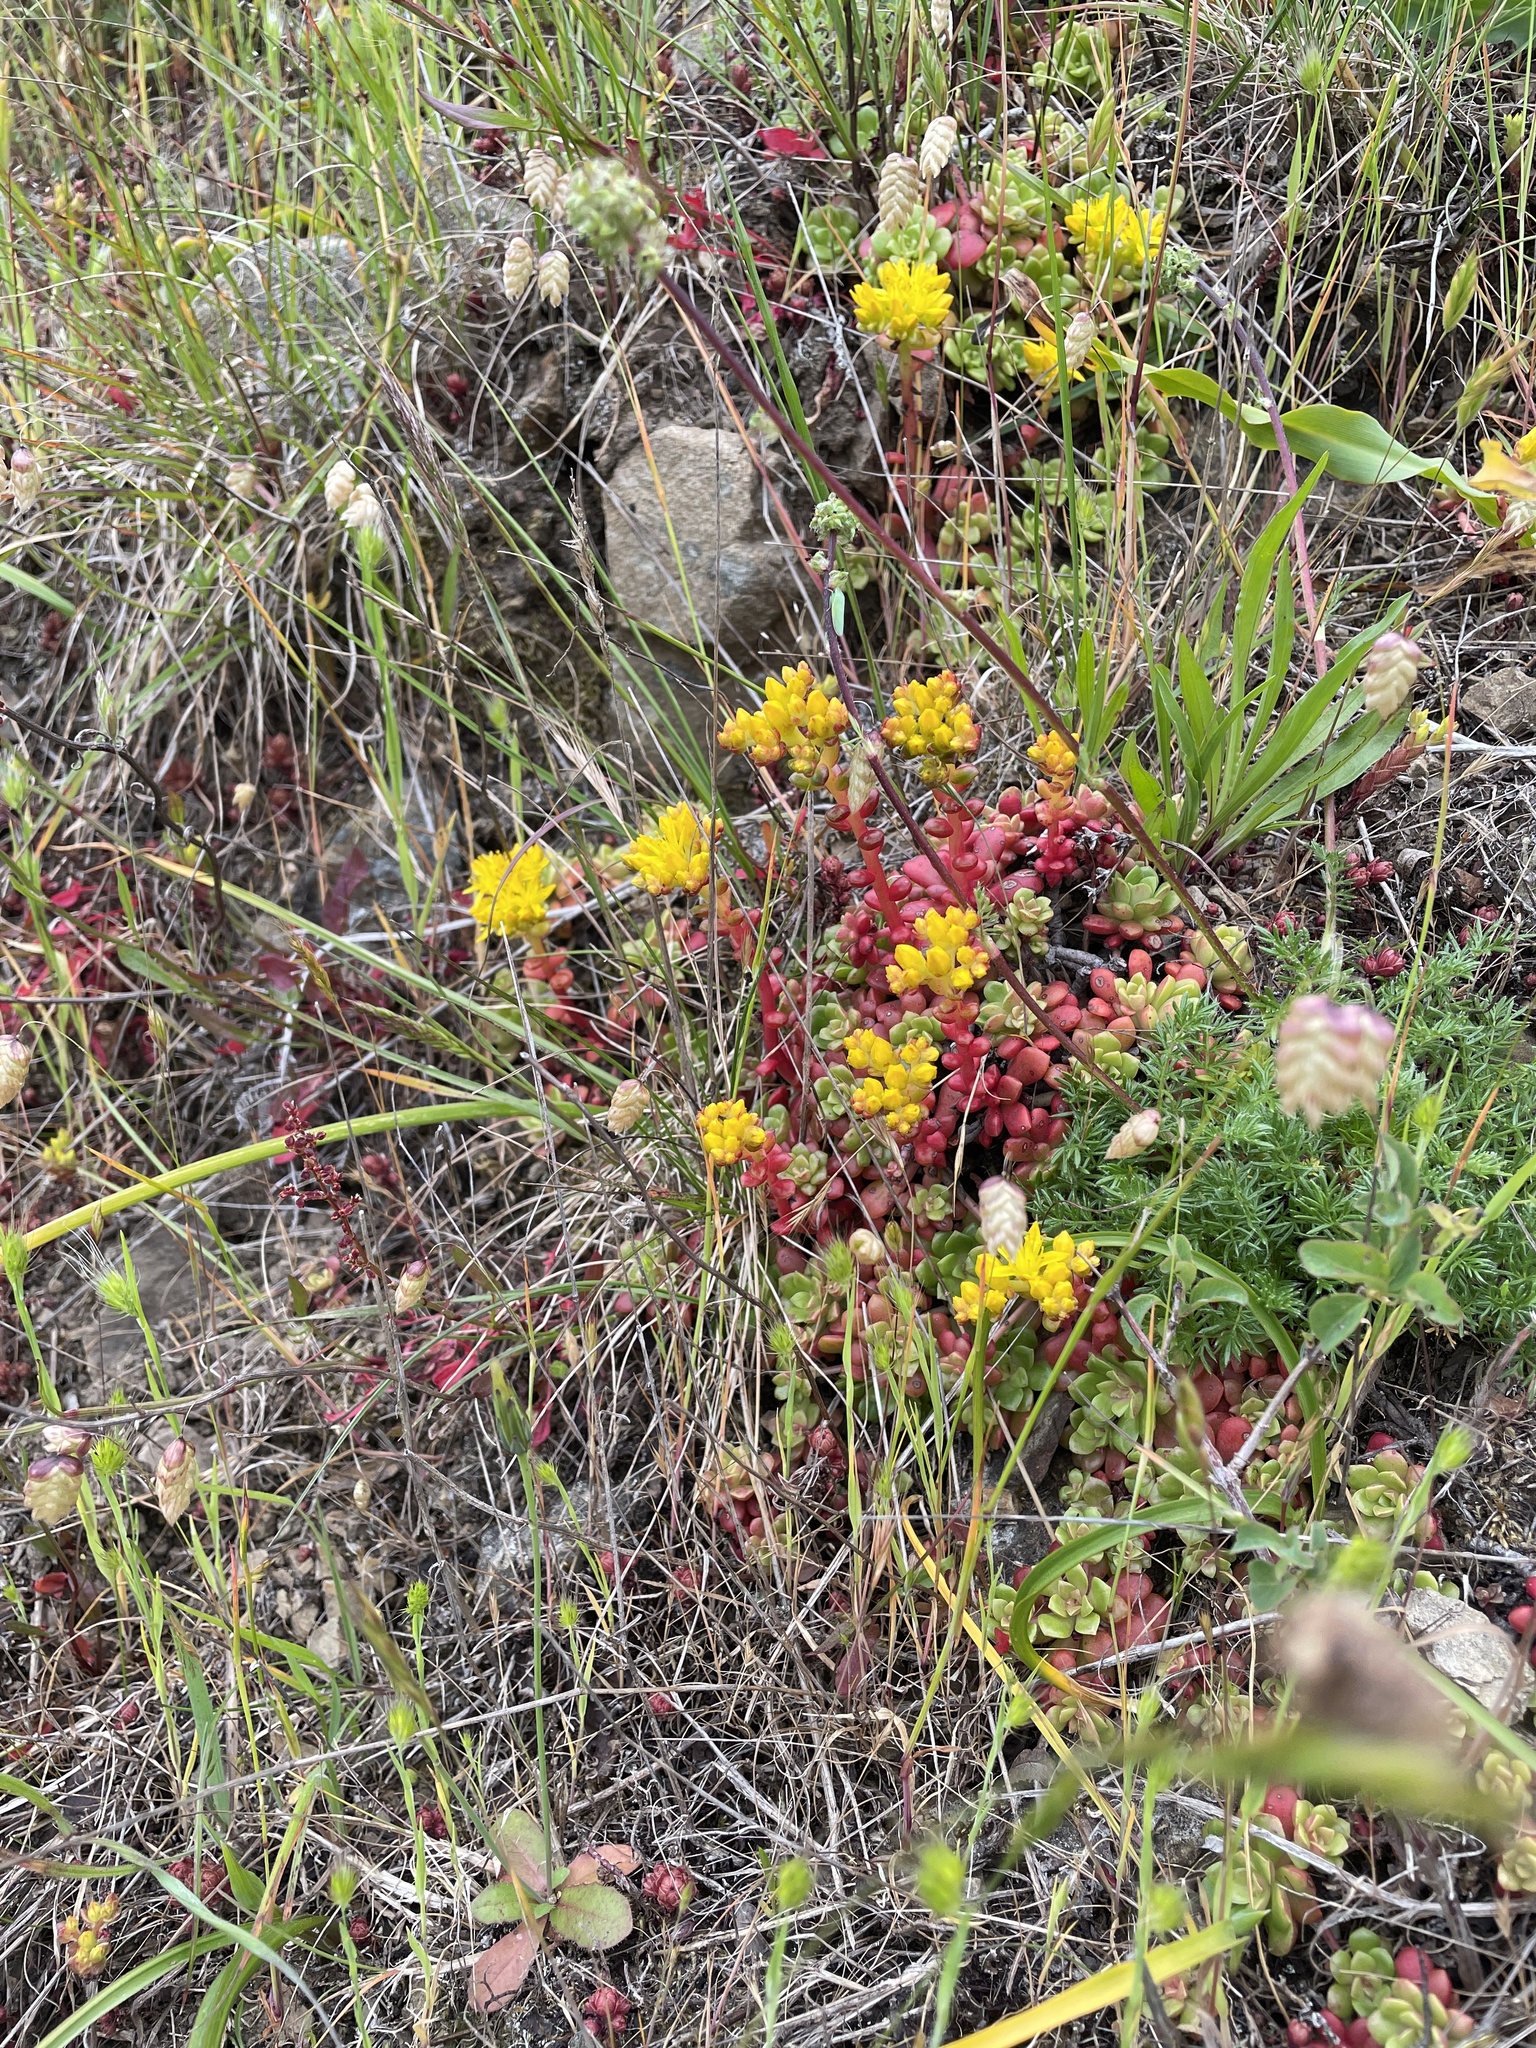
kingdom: Plantae
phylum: Tracheophyta
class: Magnoliopsida
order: Saxifragales
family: Crassulaceae
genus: Sedum
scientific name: Sedum spathulifolium
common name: Colorado stonecrop
